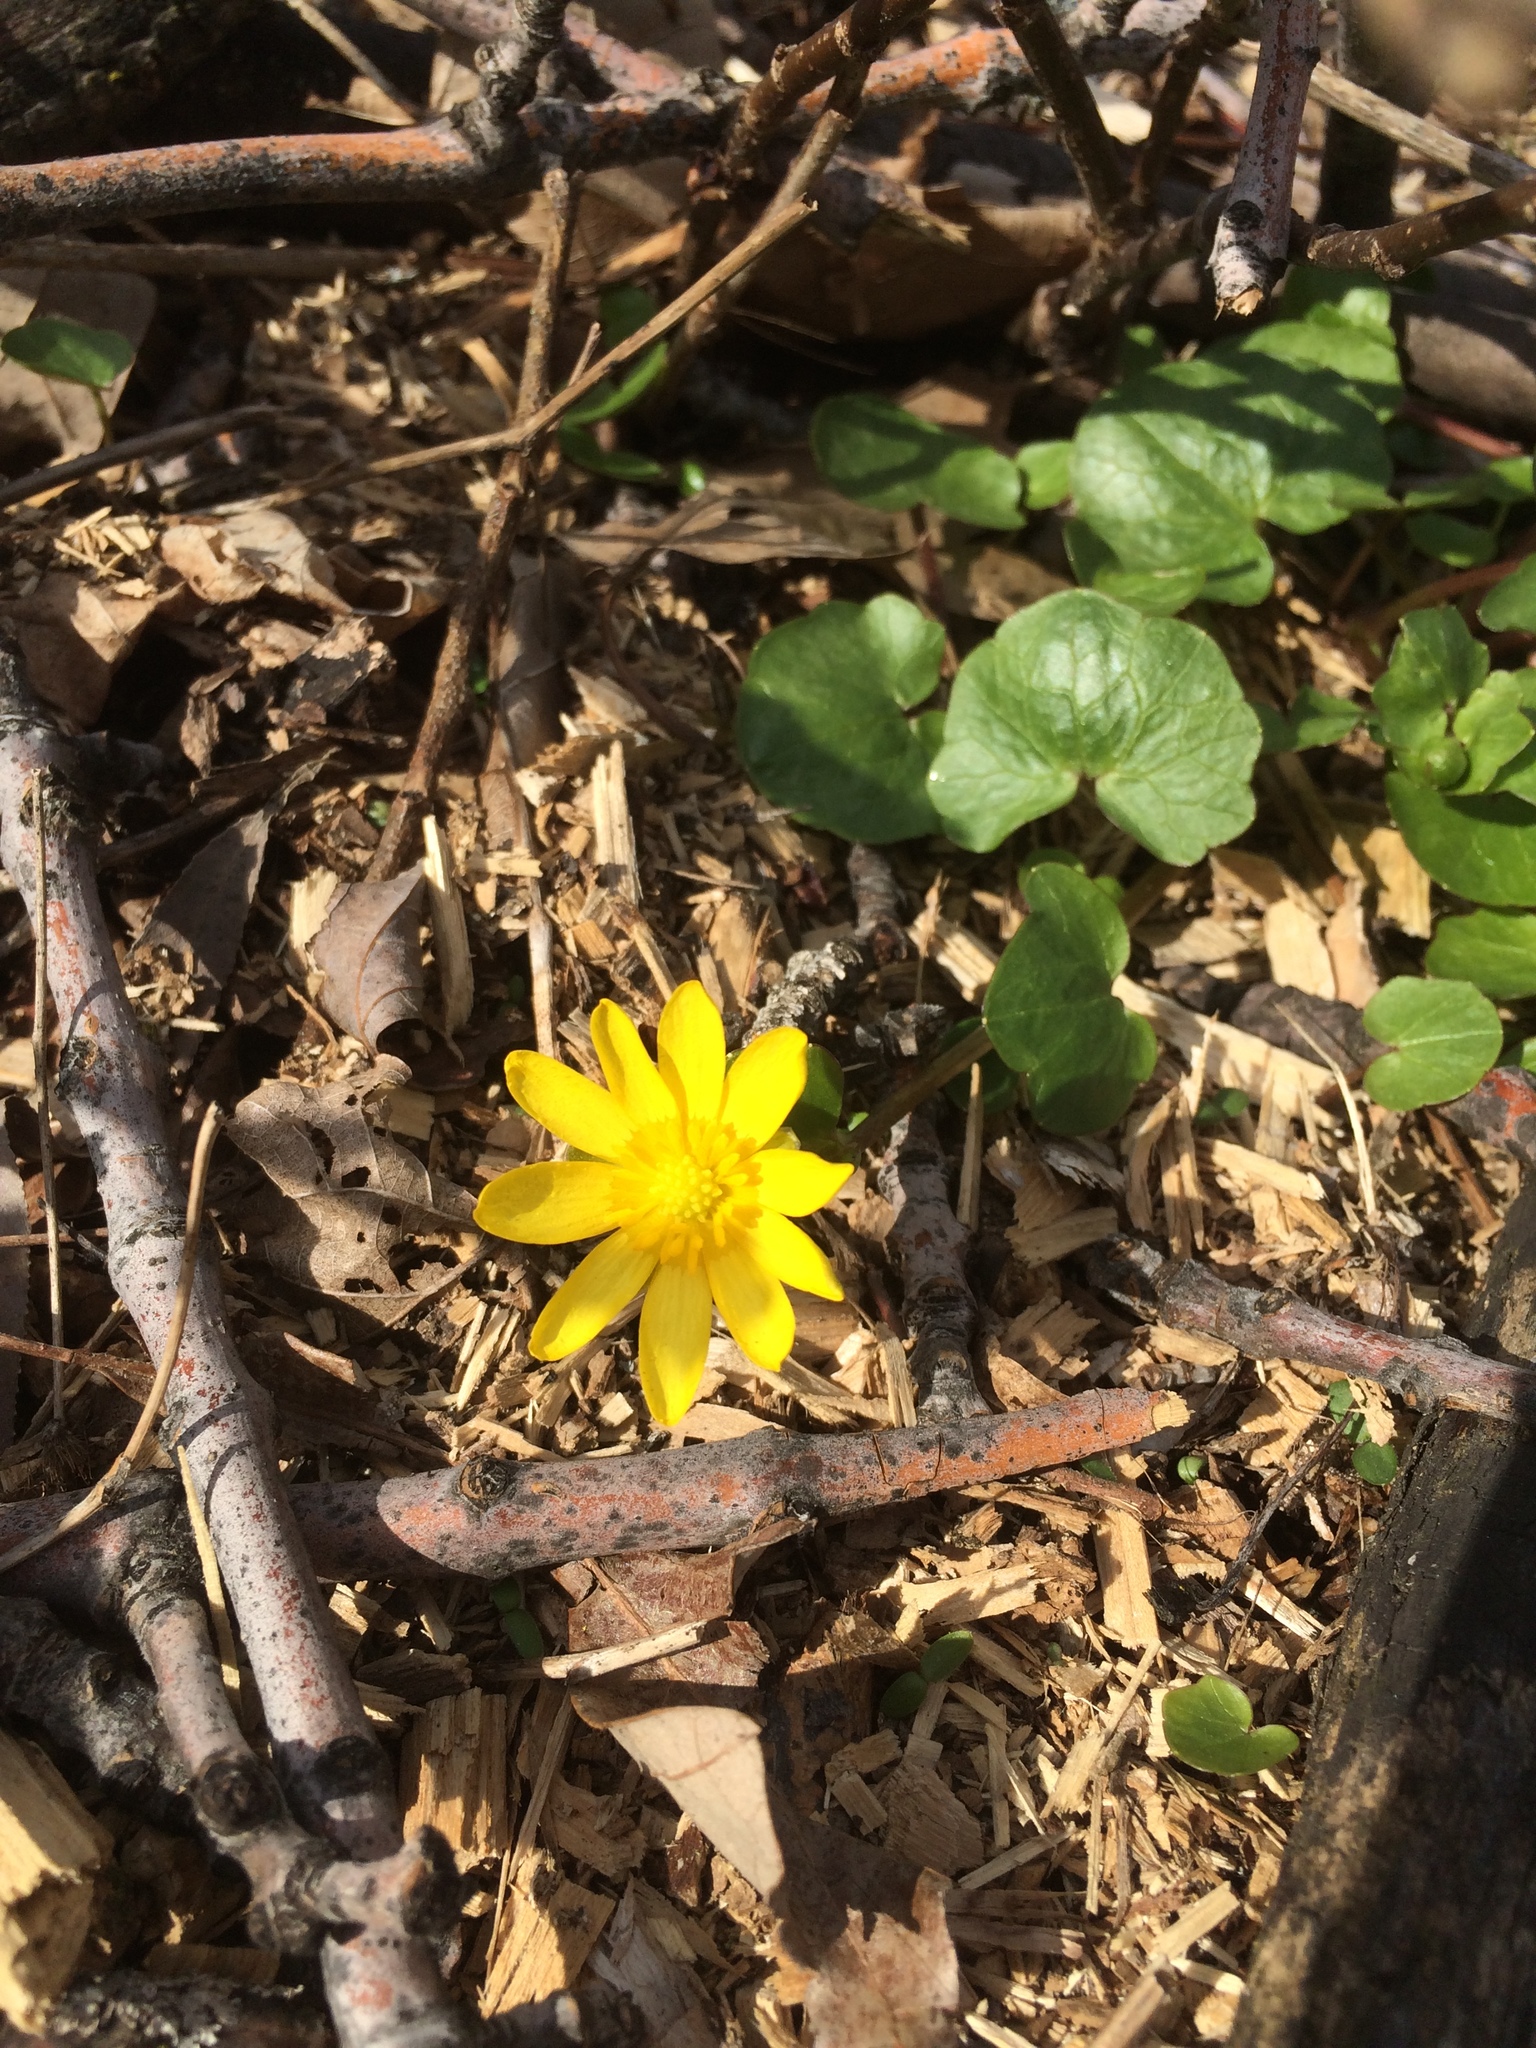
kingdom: Plantae
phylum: Tracheophyta
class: Magnoliopsida
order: Ranunculales
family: Ranunculaceae
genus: Ficaria
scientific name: Ficaria verna
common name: Lesser celandine
